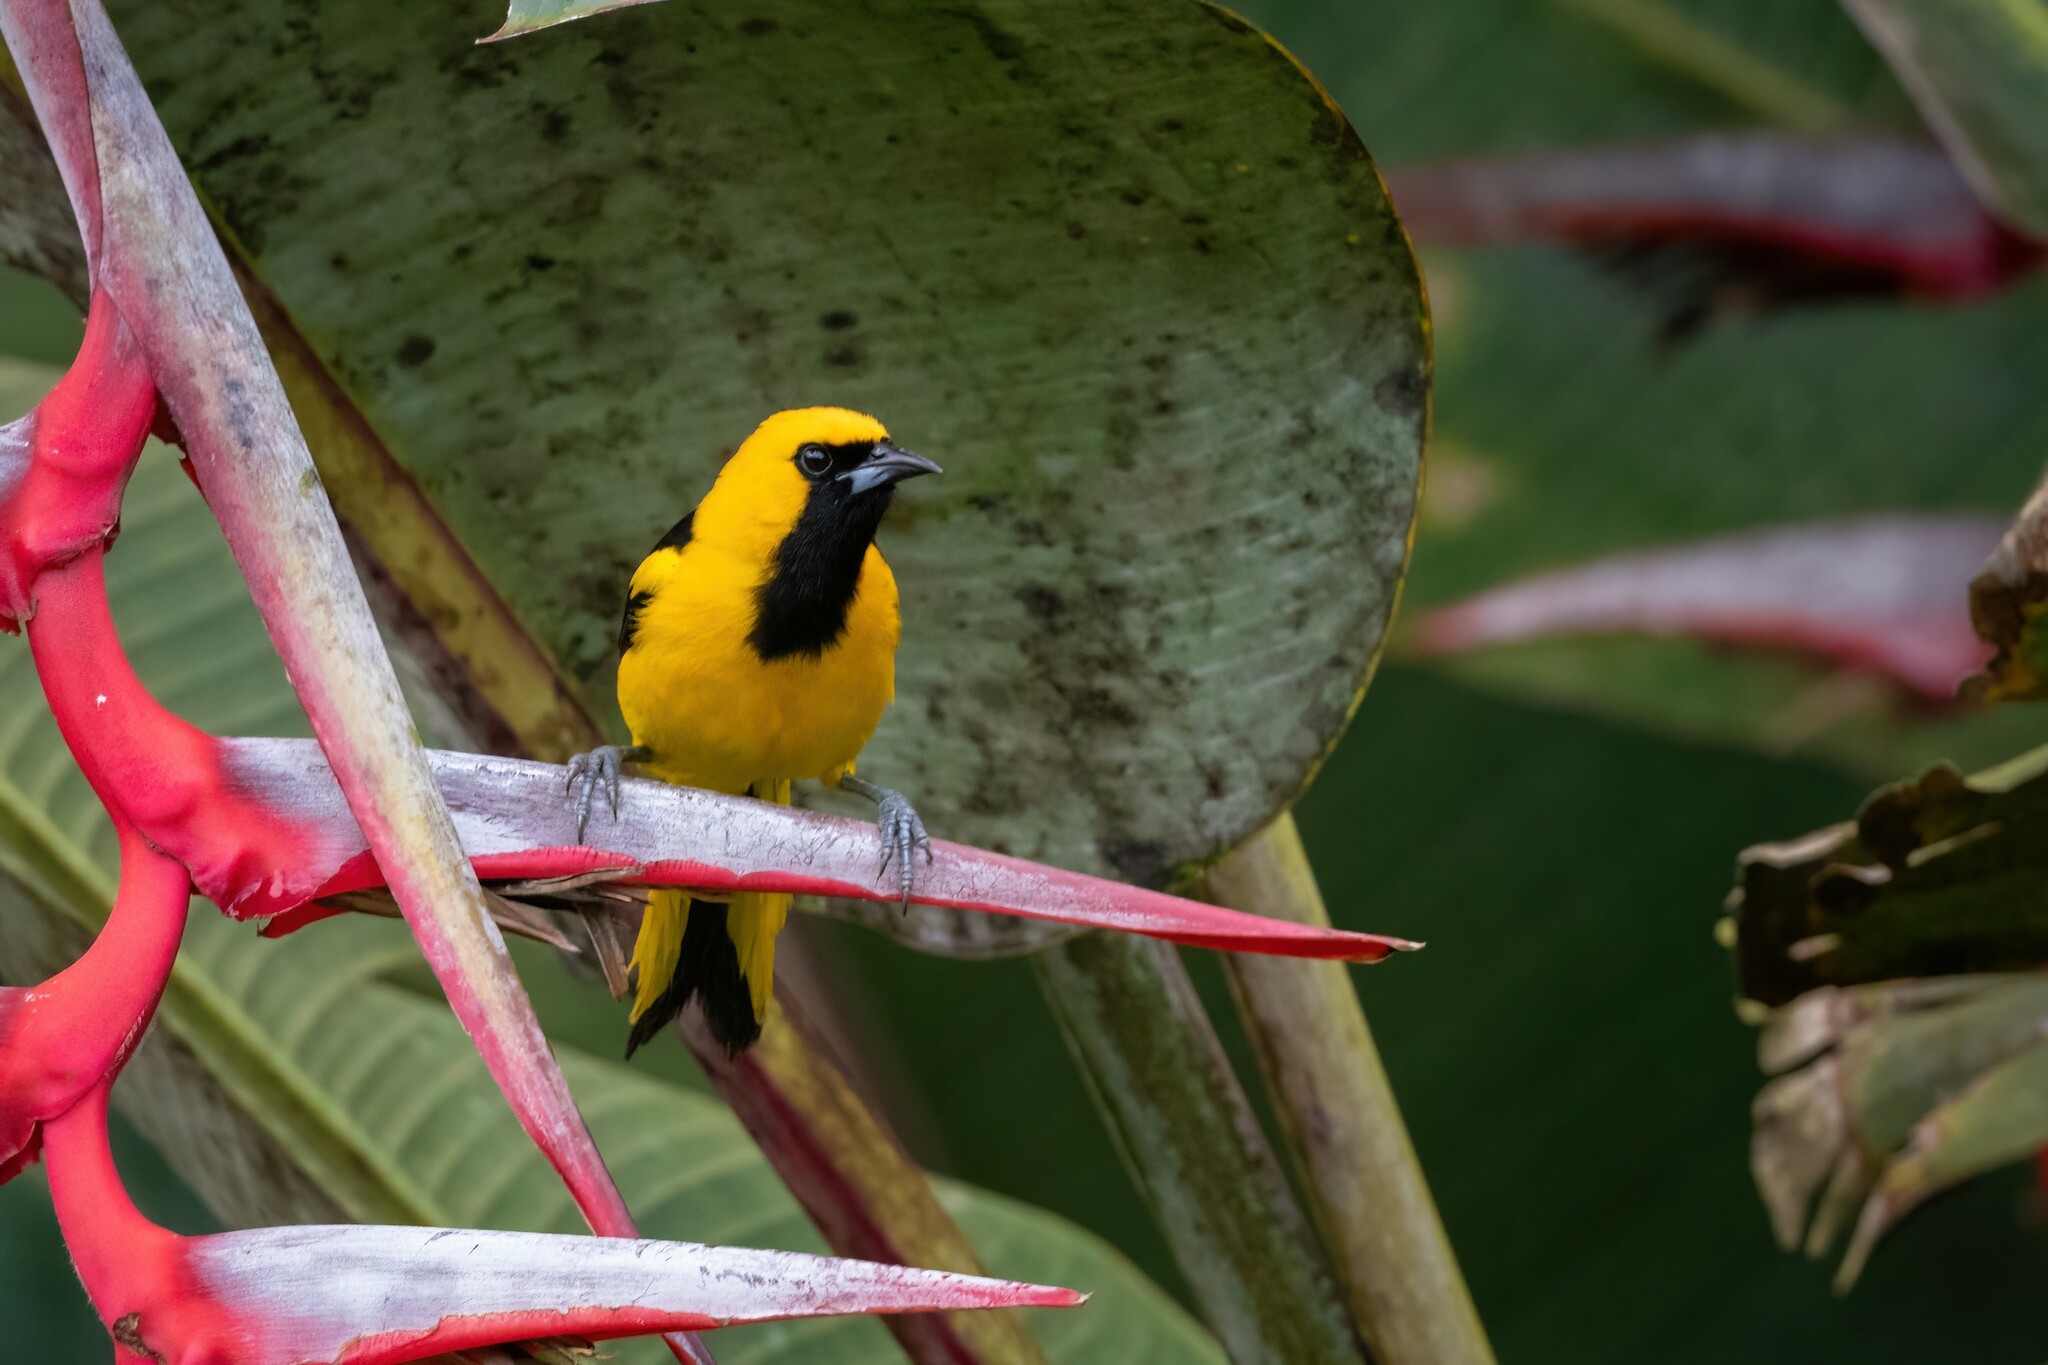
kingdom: Animalia
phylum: Chordata
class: Aves
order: Passeriformes
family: Icteridae
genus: Icterus
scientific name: Icterus mesomelas
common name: Yellow-tailed oriole
